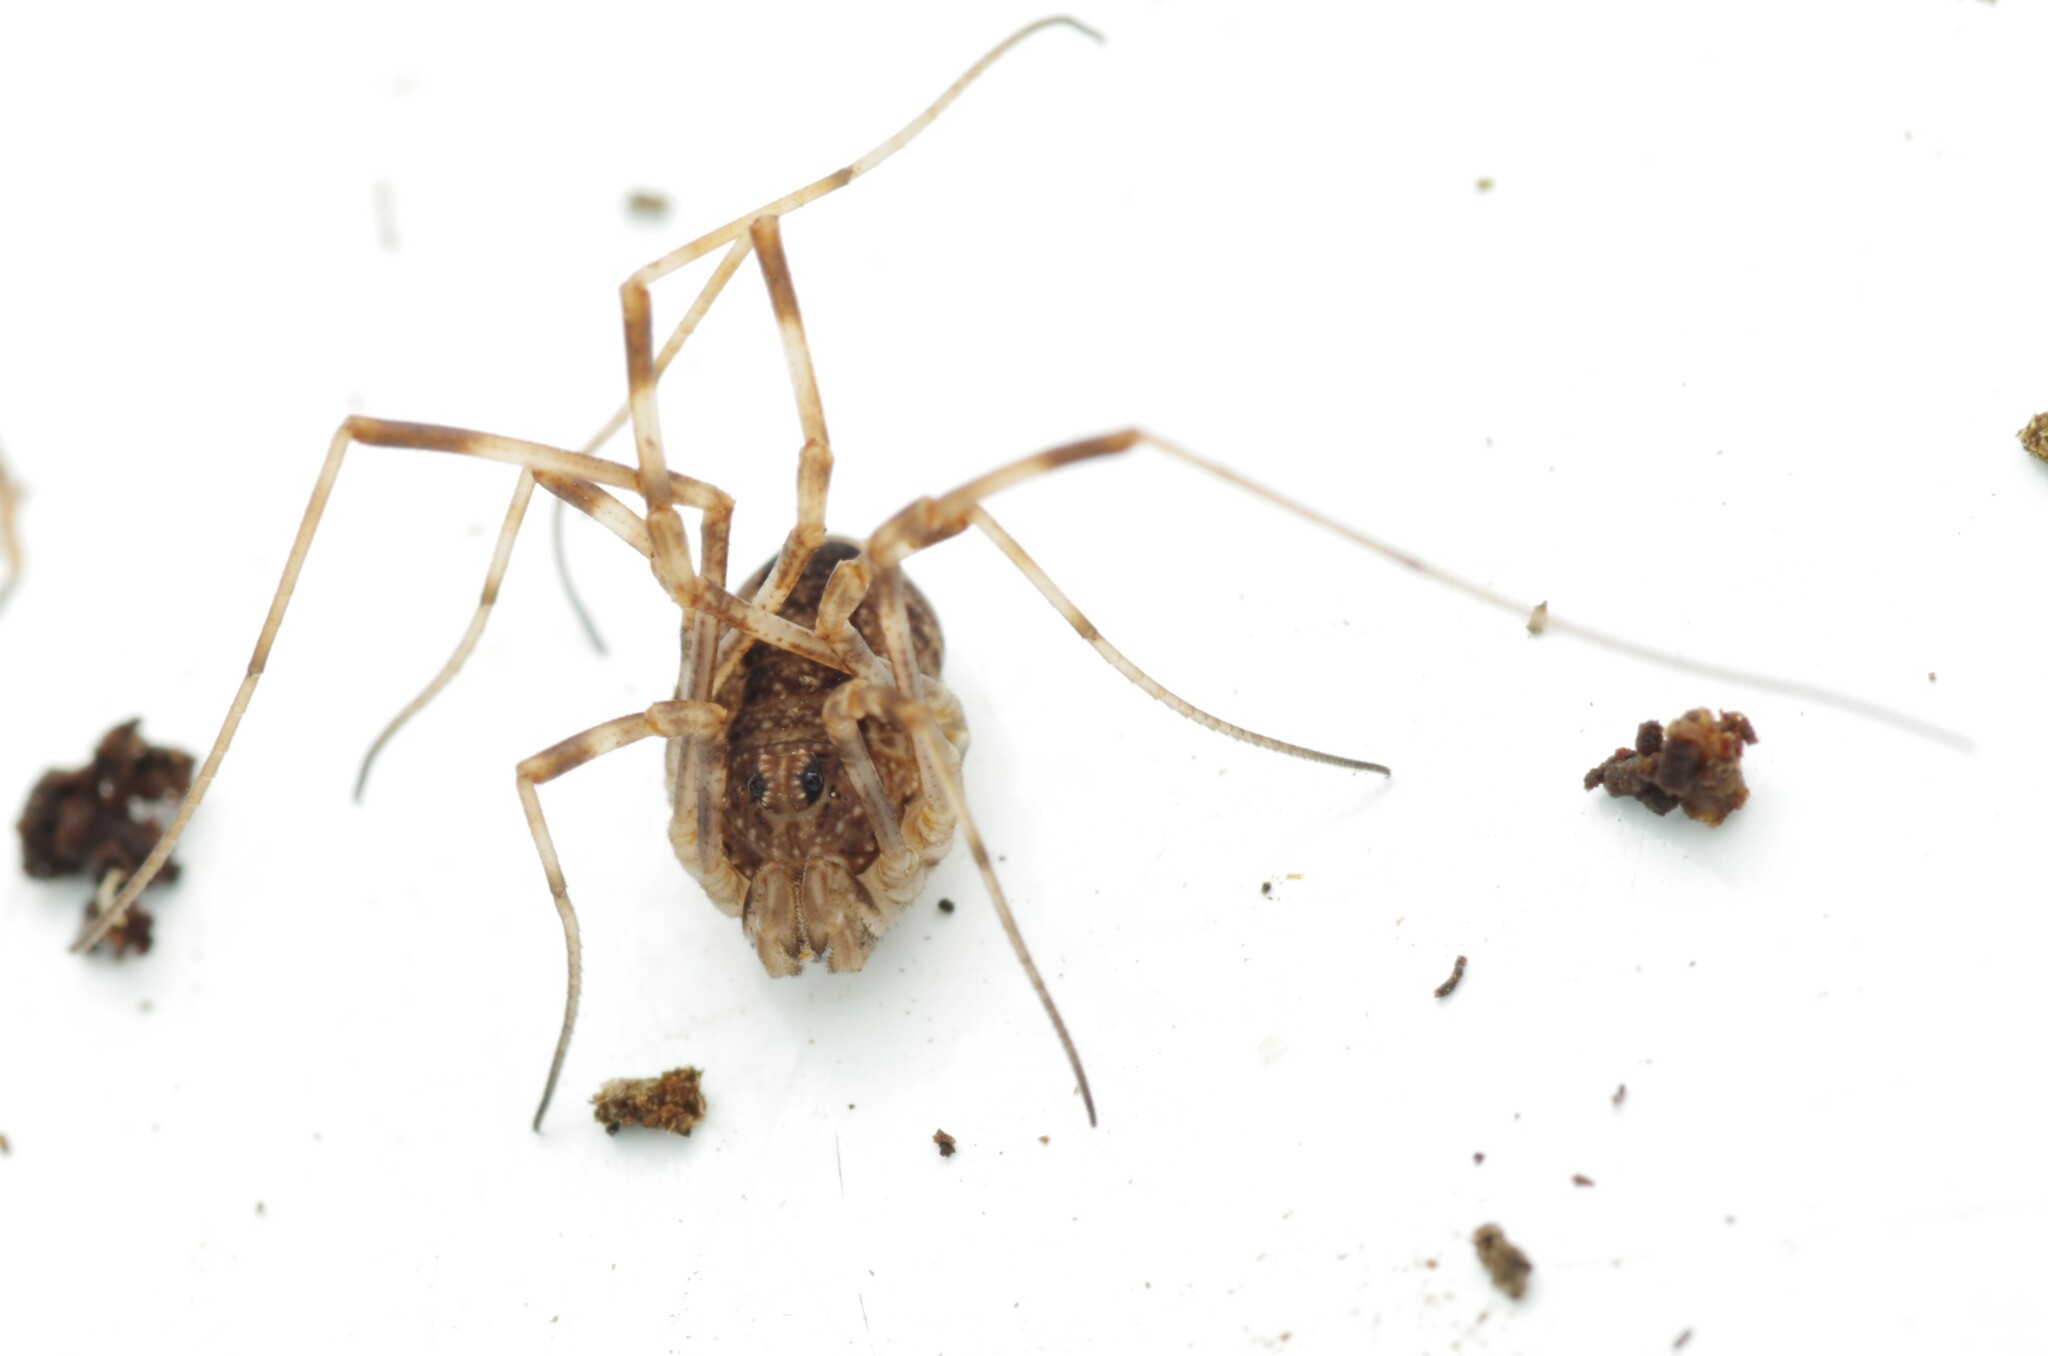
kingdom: Animalia
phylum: Arthropoda
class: Arachnida
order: Opiliones
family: Phalangiidae
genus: Rilaena
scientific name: Rilaena triangularis
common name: Spring harvestman
